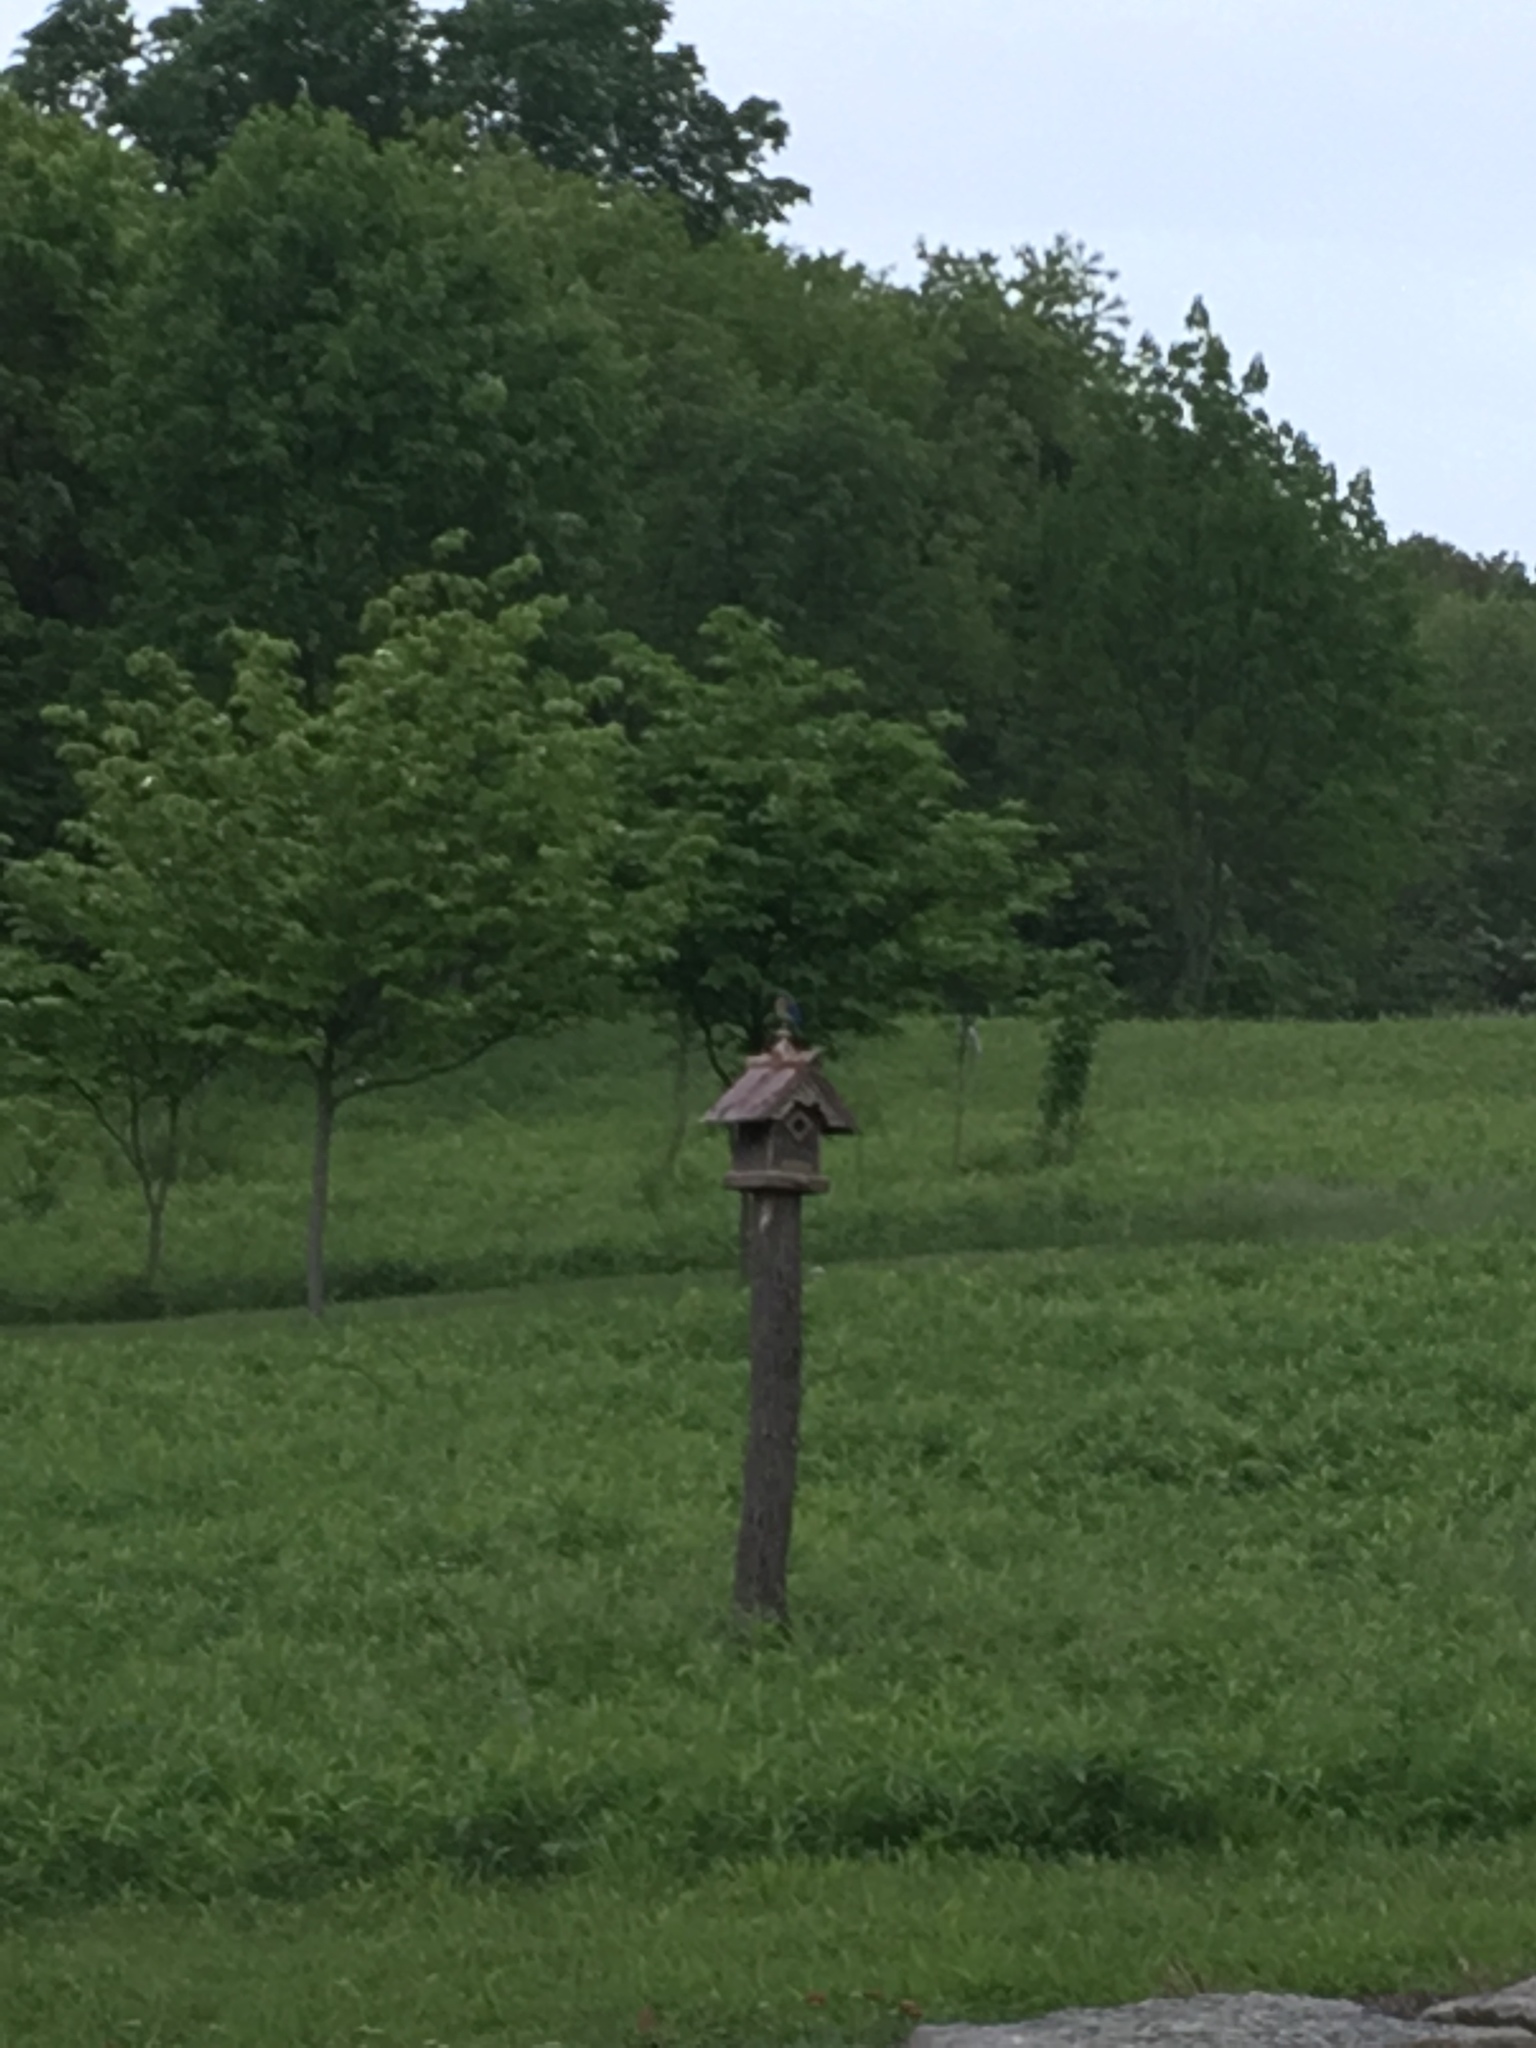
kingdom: Animalia
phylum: Chordata
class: Aves
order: Passeriformes
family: Turdidae
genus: Sialia
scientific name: Sialia sialis
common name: Eastern bluebird
